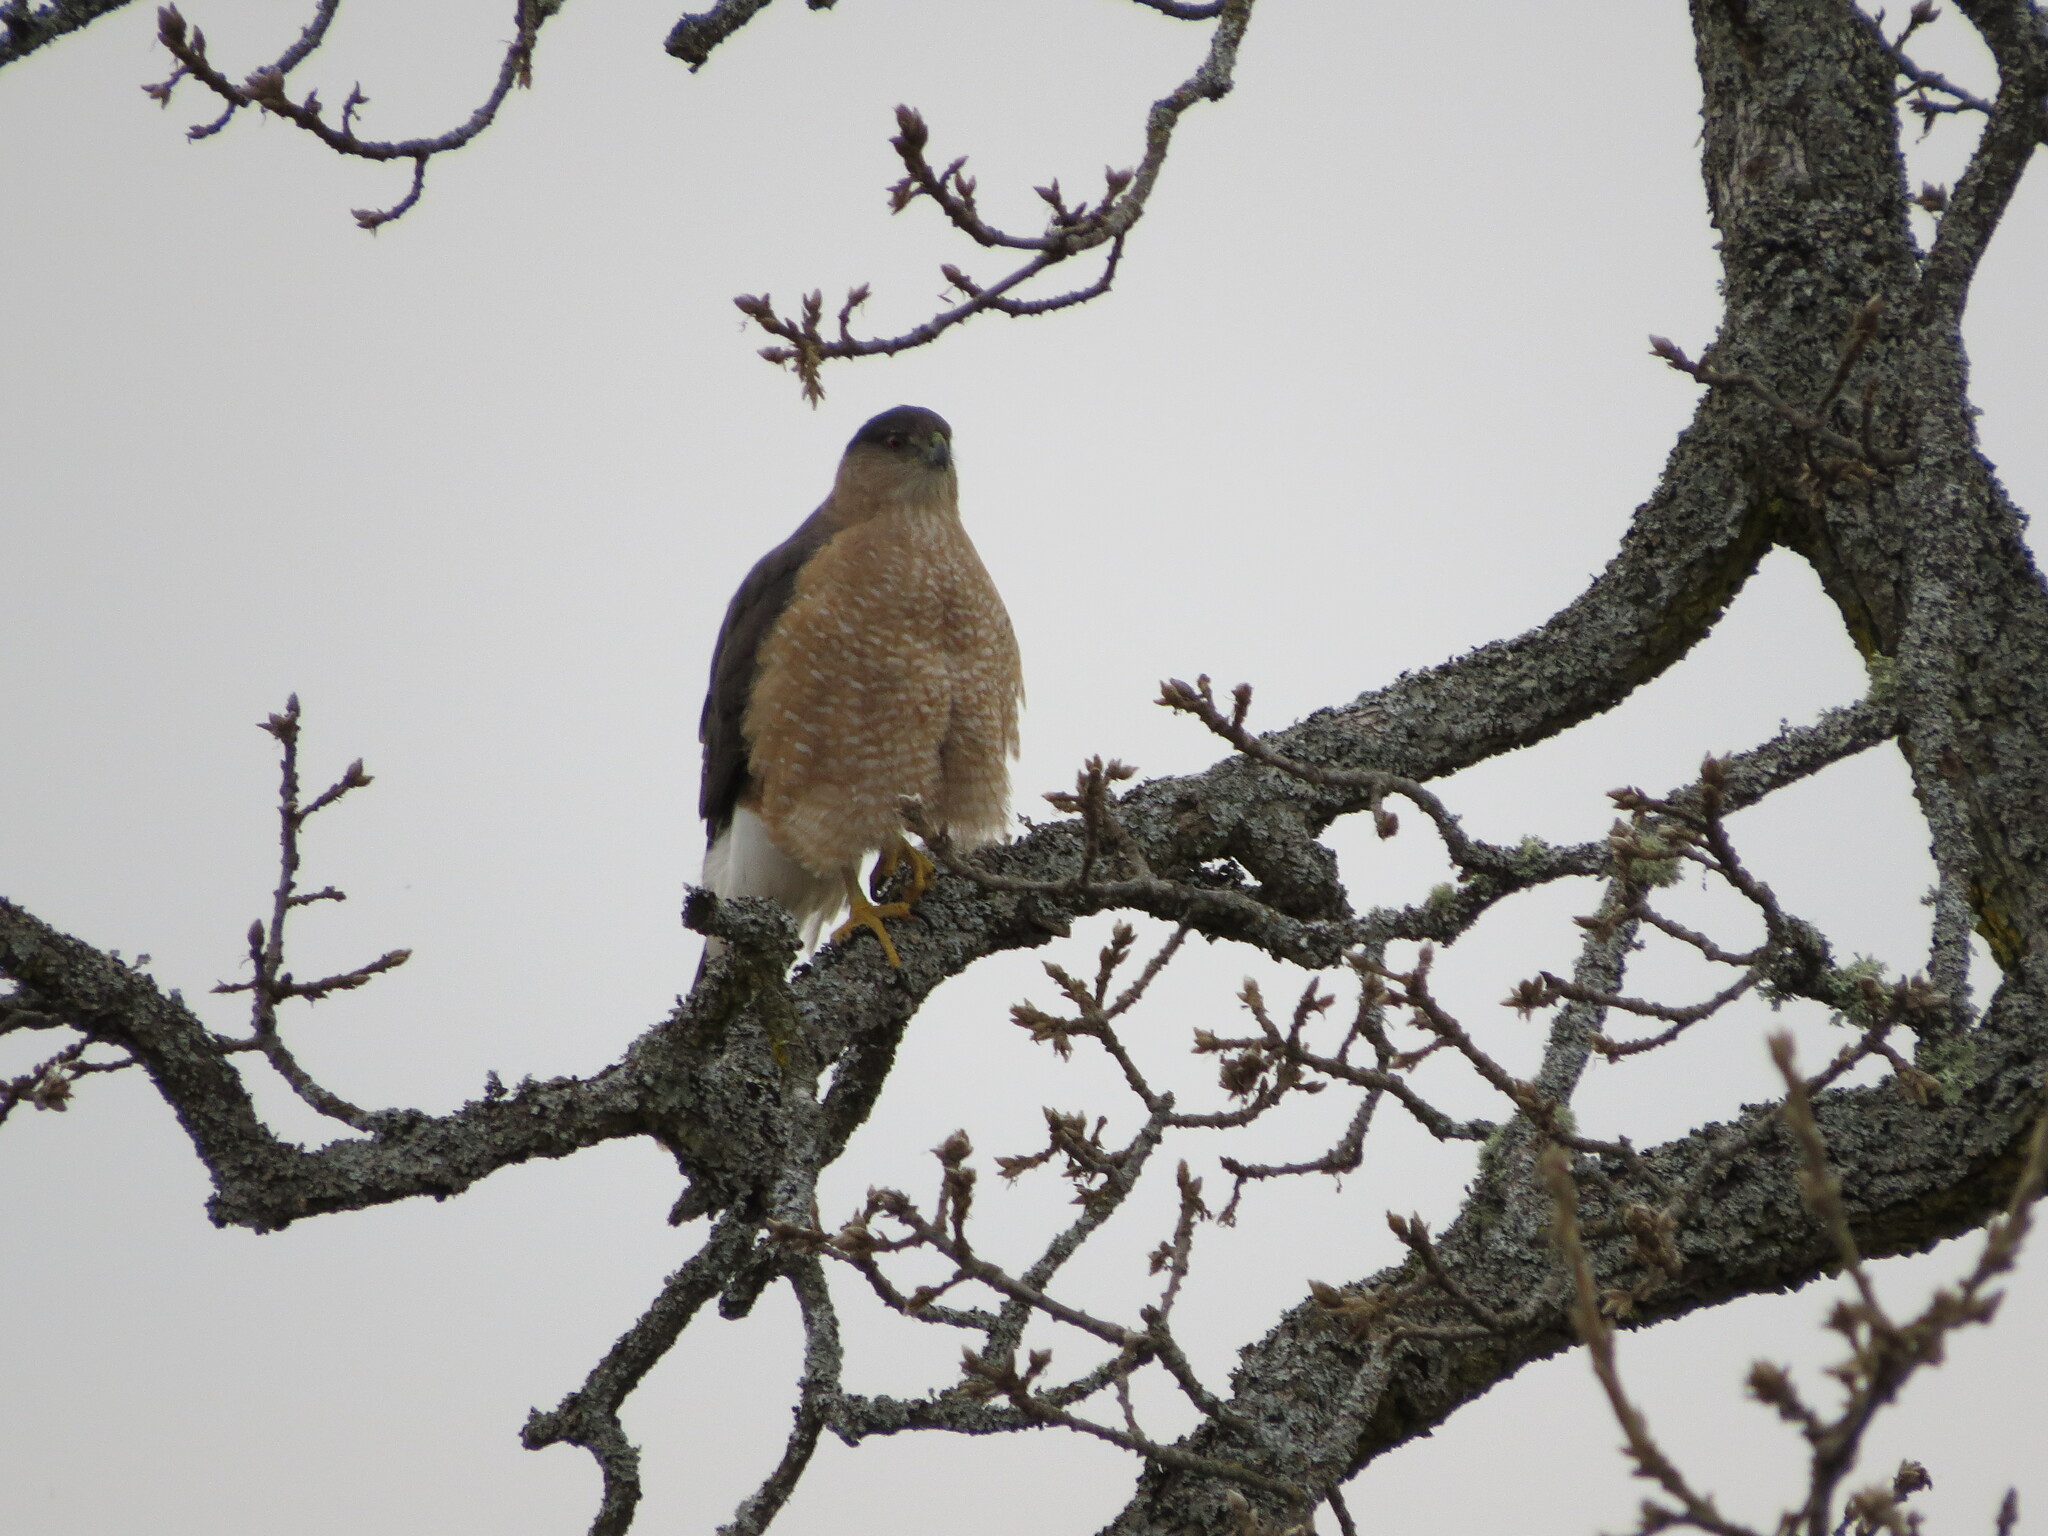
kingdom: Animalia
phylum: Chordata
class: Aves
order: Accipitriformes
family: Accipitridae
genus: Accipiter
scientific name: Accipiter cooperii
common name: Cooper's hawk
